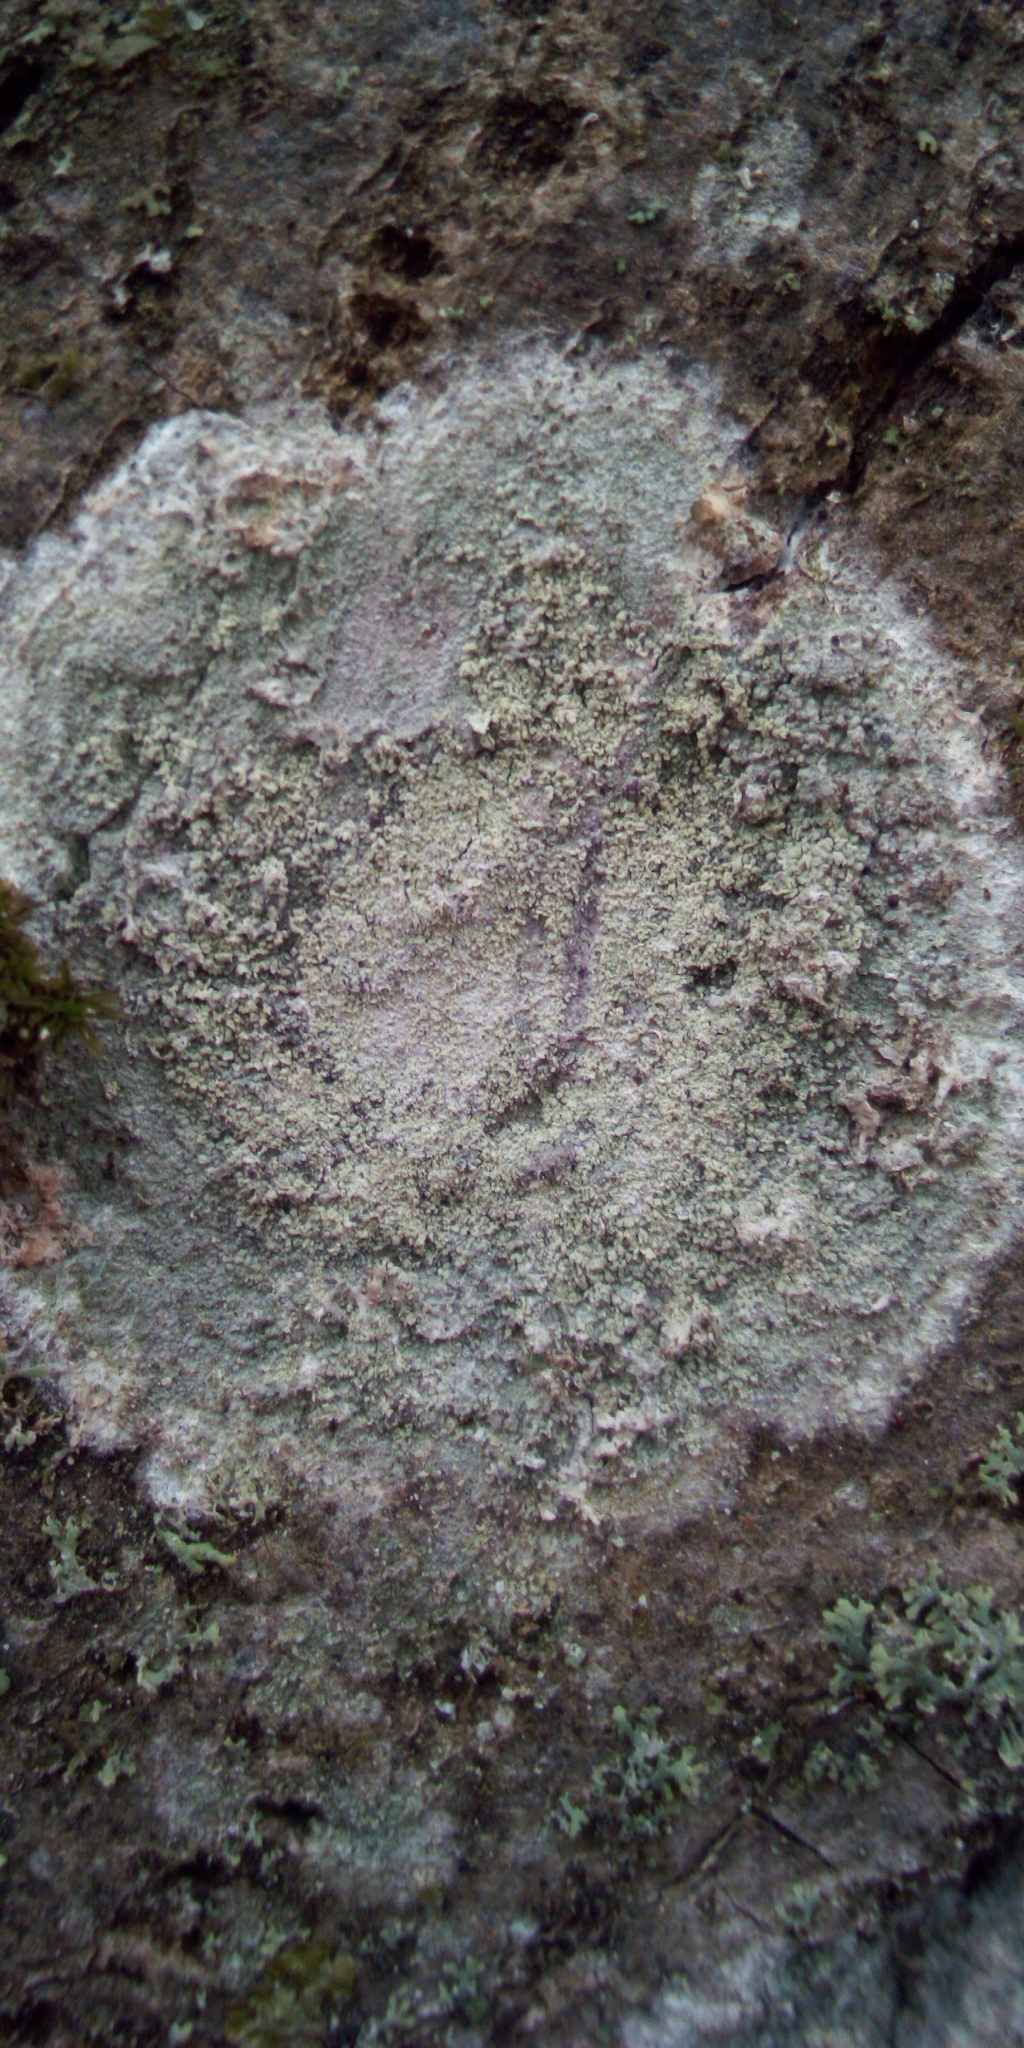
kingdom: Fungi
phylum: Ascomycota
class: Lecanoromycetes
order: Ostropales
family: Phlyctidaceae
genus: Phlyctis
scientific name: Phlyctis argena
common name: Whitewash lichen
